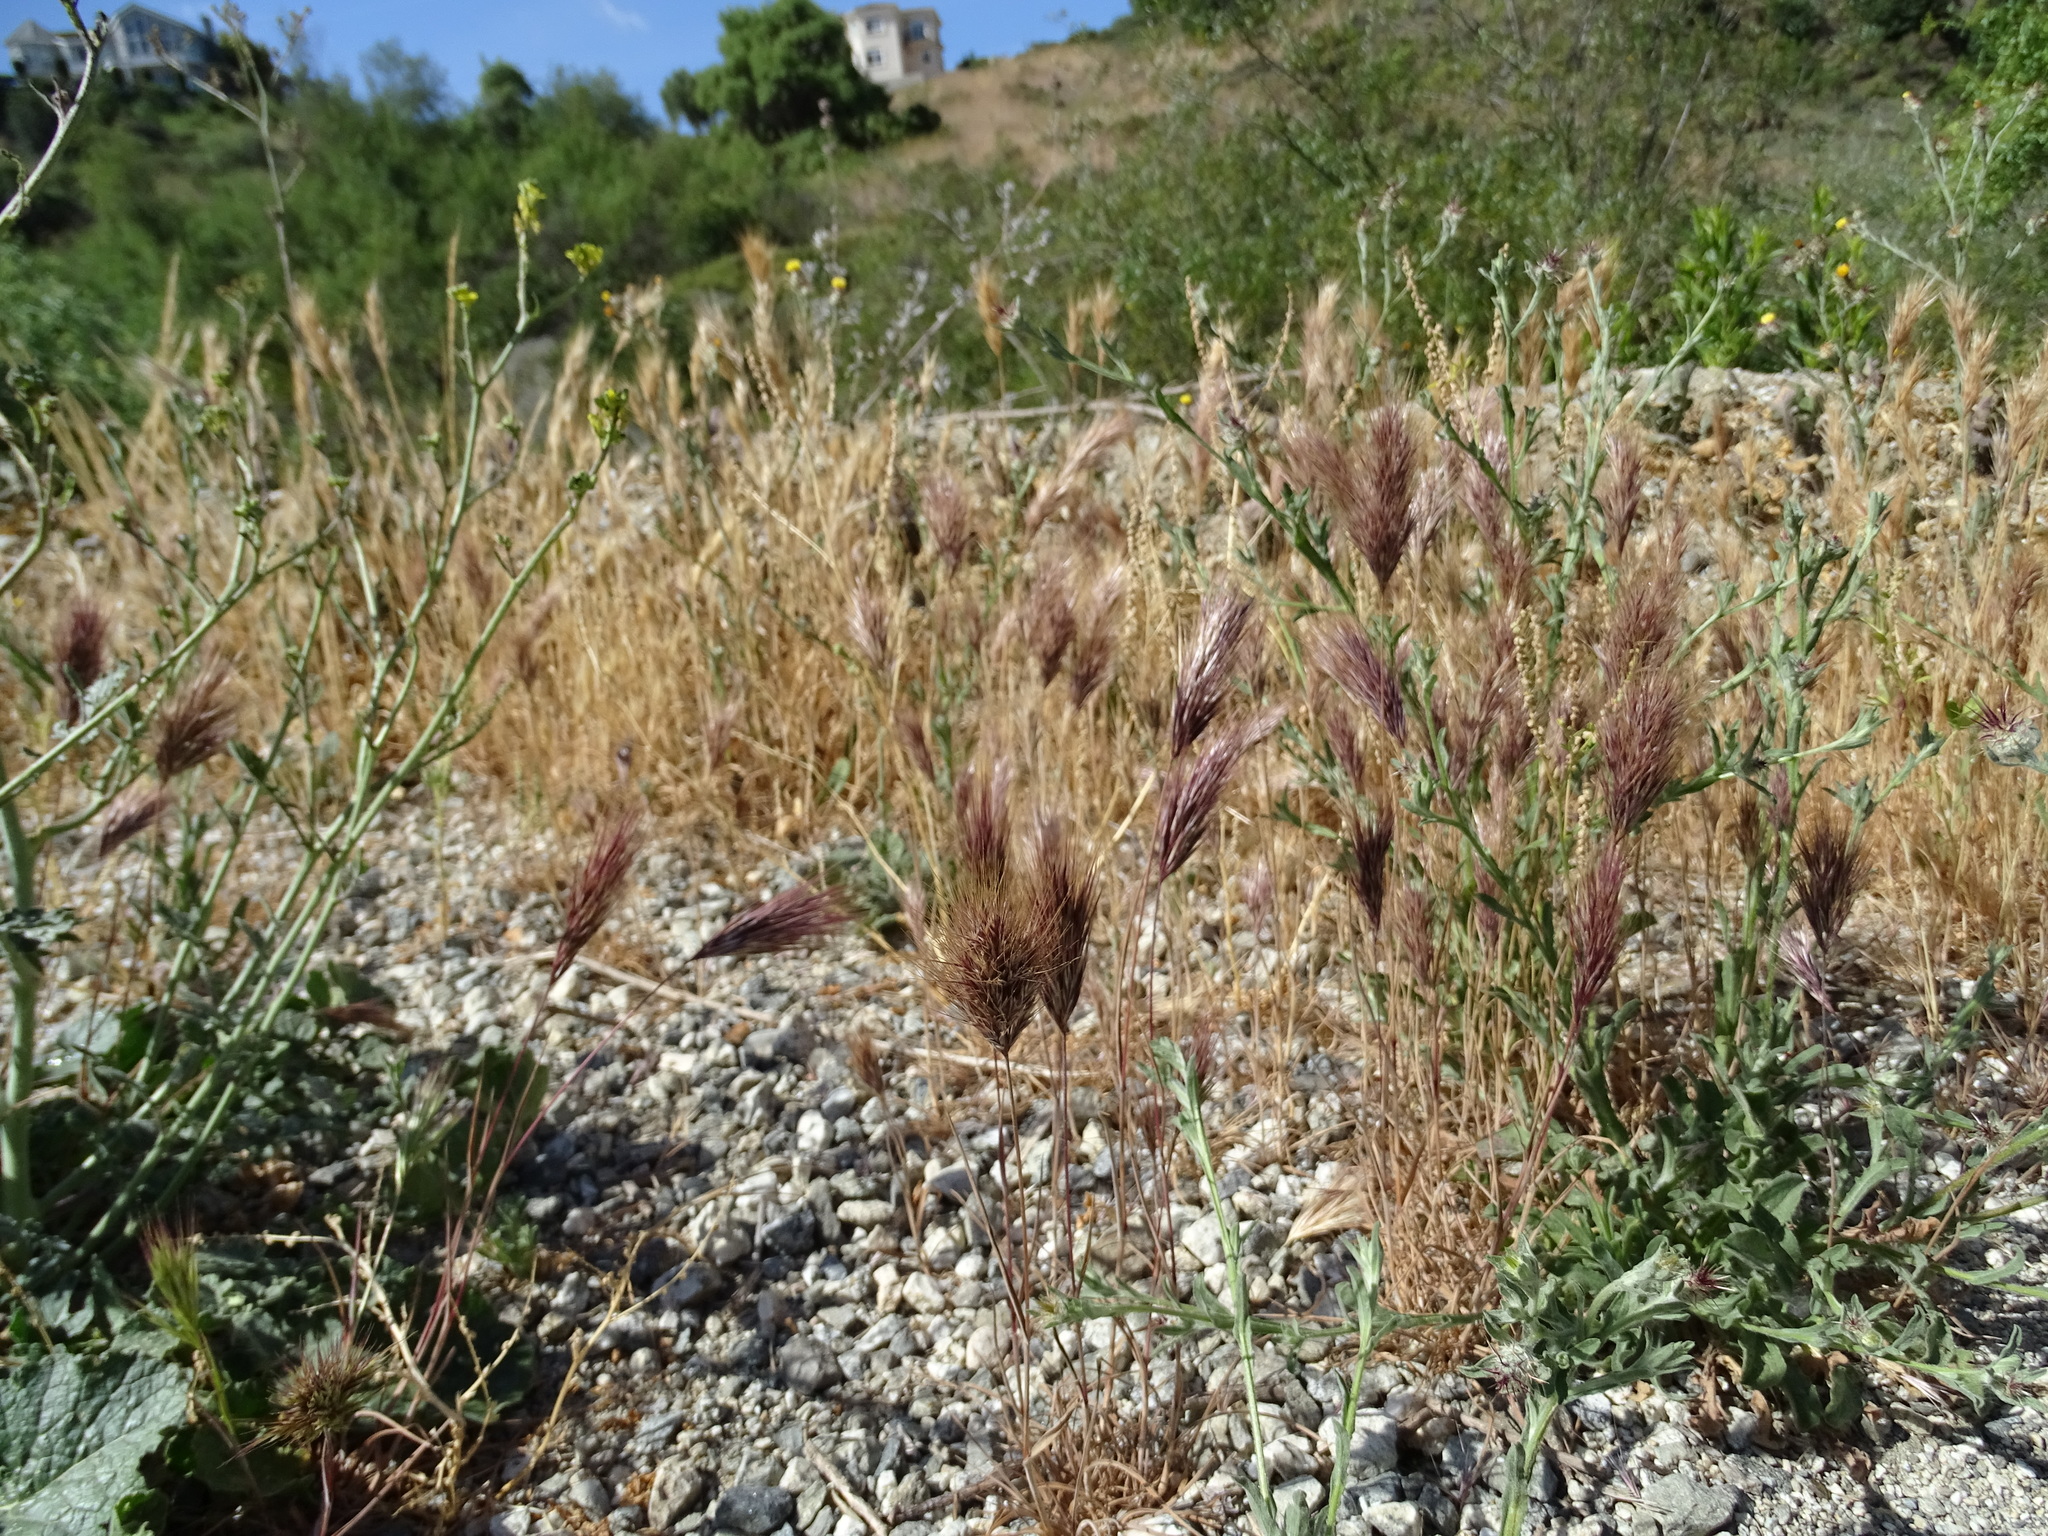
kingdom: Plantae
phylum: Tracheophyta
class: Liliopsida
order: Poales
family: Poaceae
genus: Bromus
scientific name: Bromus madritensis
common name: Compact brome
